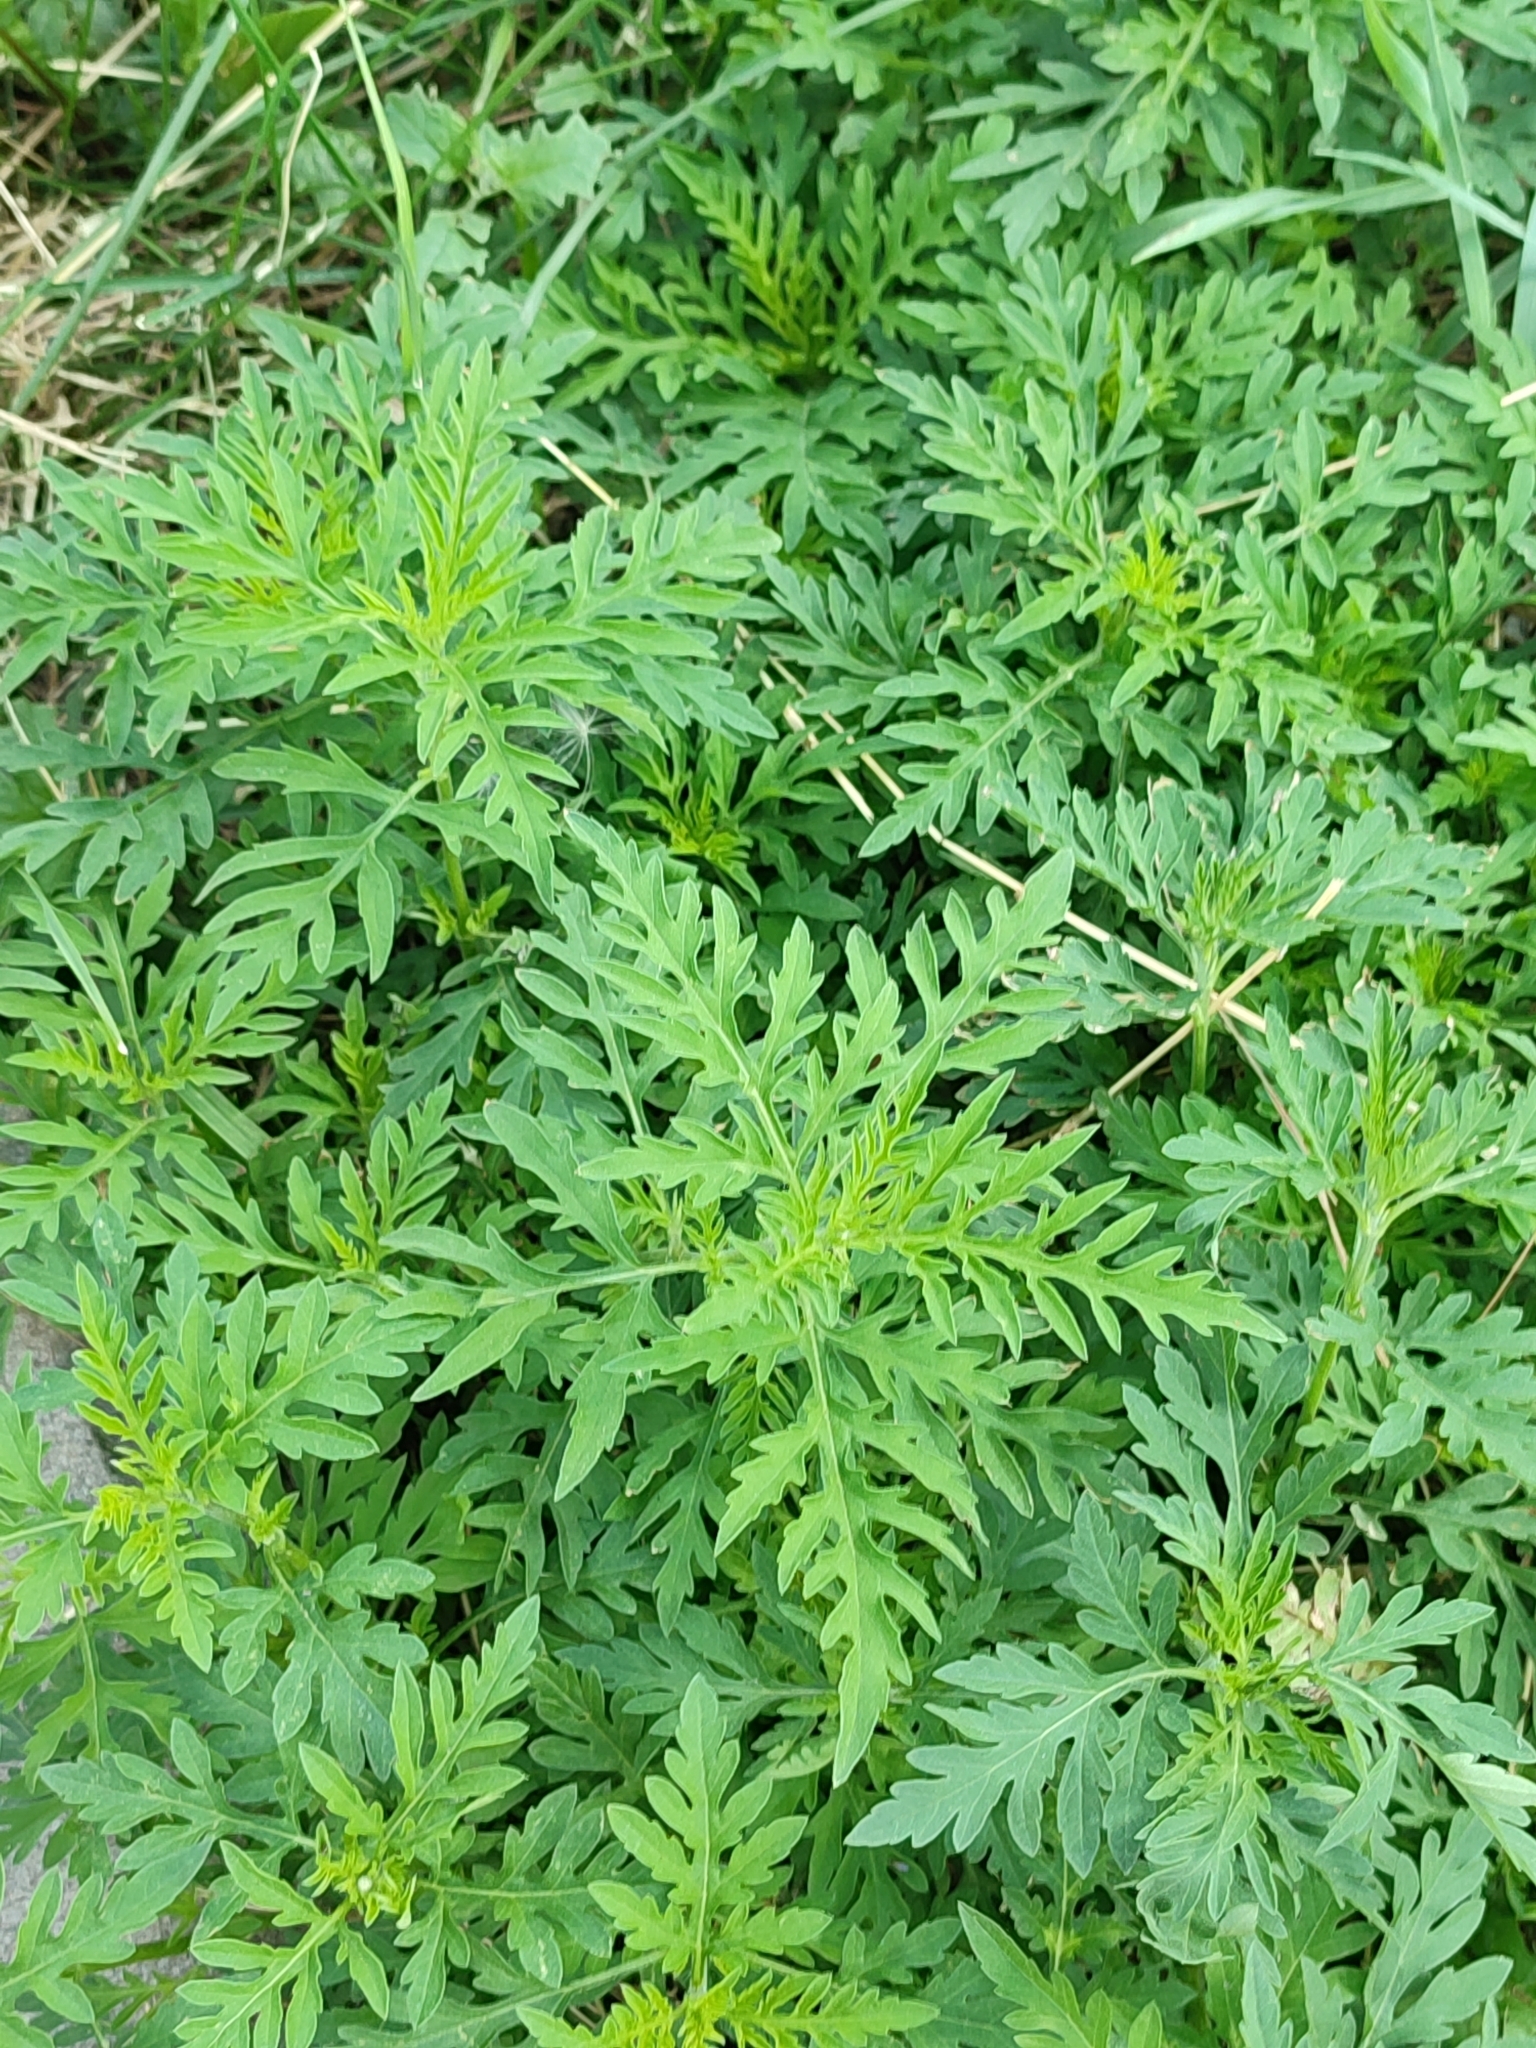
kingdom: Plantae
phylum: Tracheophyta
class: Magnoliopsida
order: Asterales
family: Asteraceae
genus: Ambrosia
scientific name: Ambrosia artemisiifolia
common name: Annual ragweed
